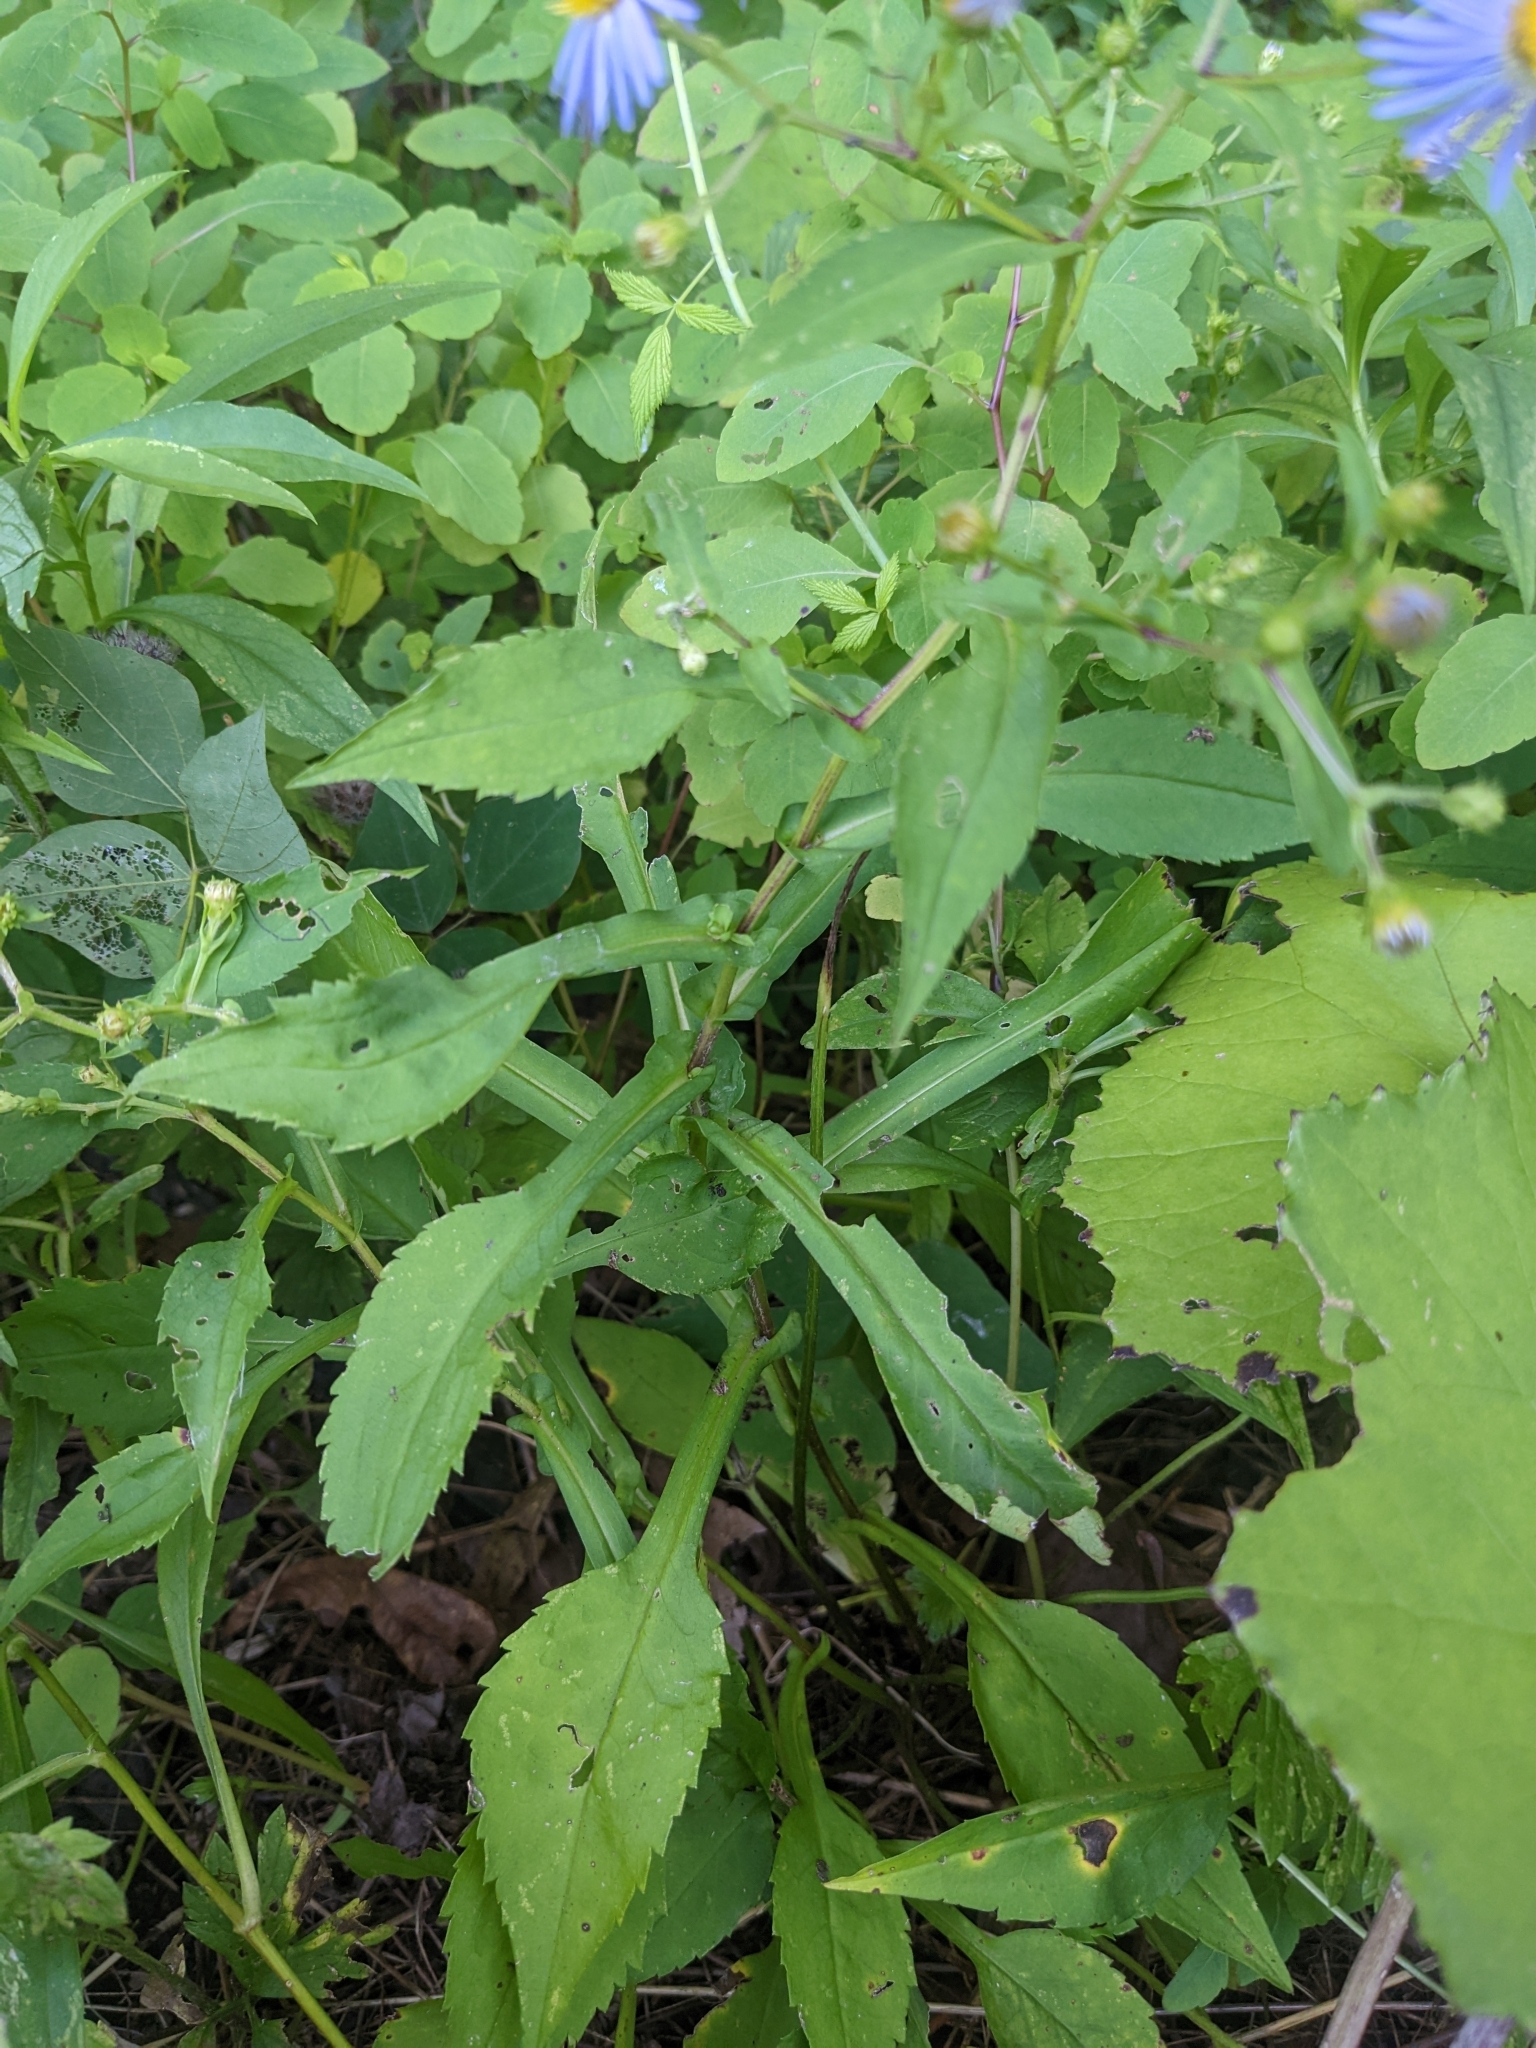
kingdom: Plantae
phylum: Tracheophyta
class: Magnoliopsida
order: Asterales
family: Asteraceae
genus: Symphyotrichum
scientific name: Symphyotrichum prenanthoides
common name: Crooked-stem aster
